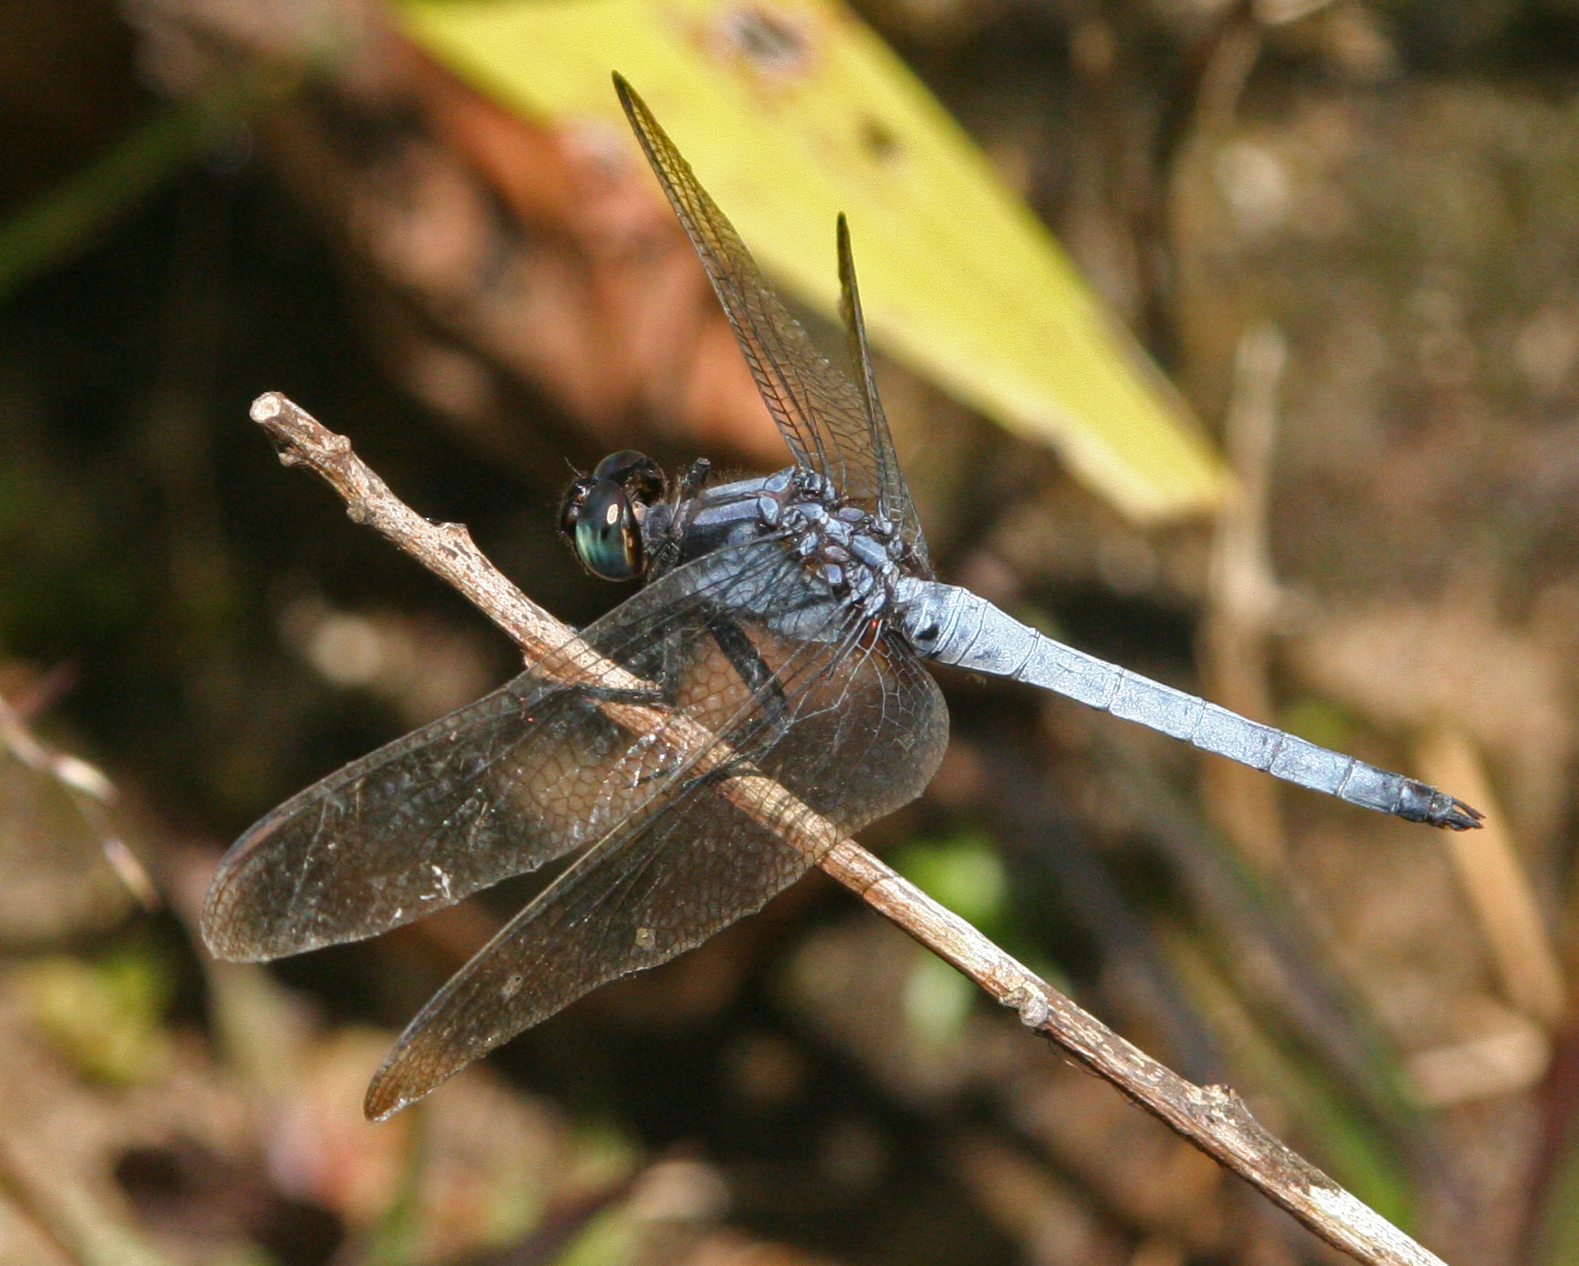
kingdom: Animalia
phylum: Arthropoda
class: Insecta
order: Odonata
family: Libellulidae
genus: Orthetrum
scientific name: Orthetrum glaucum
